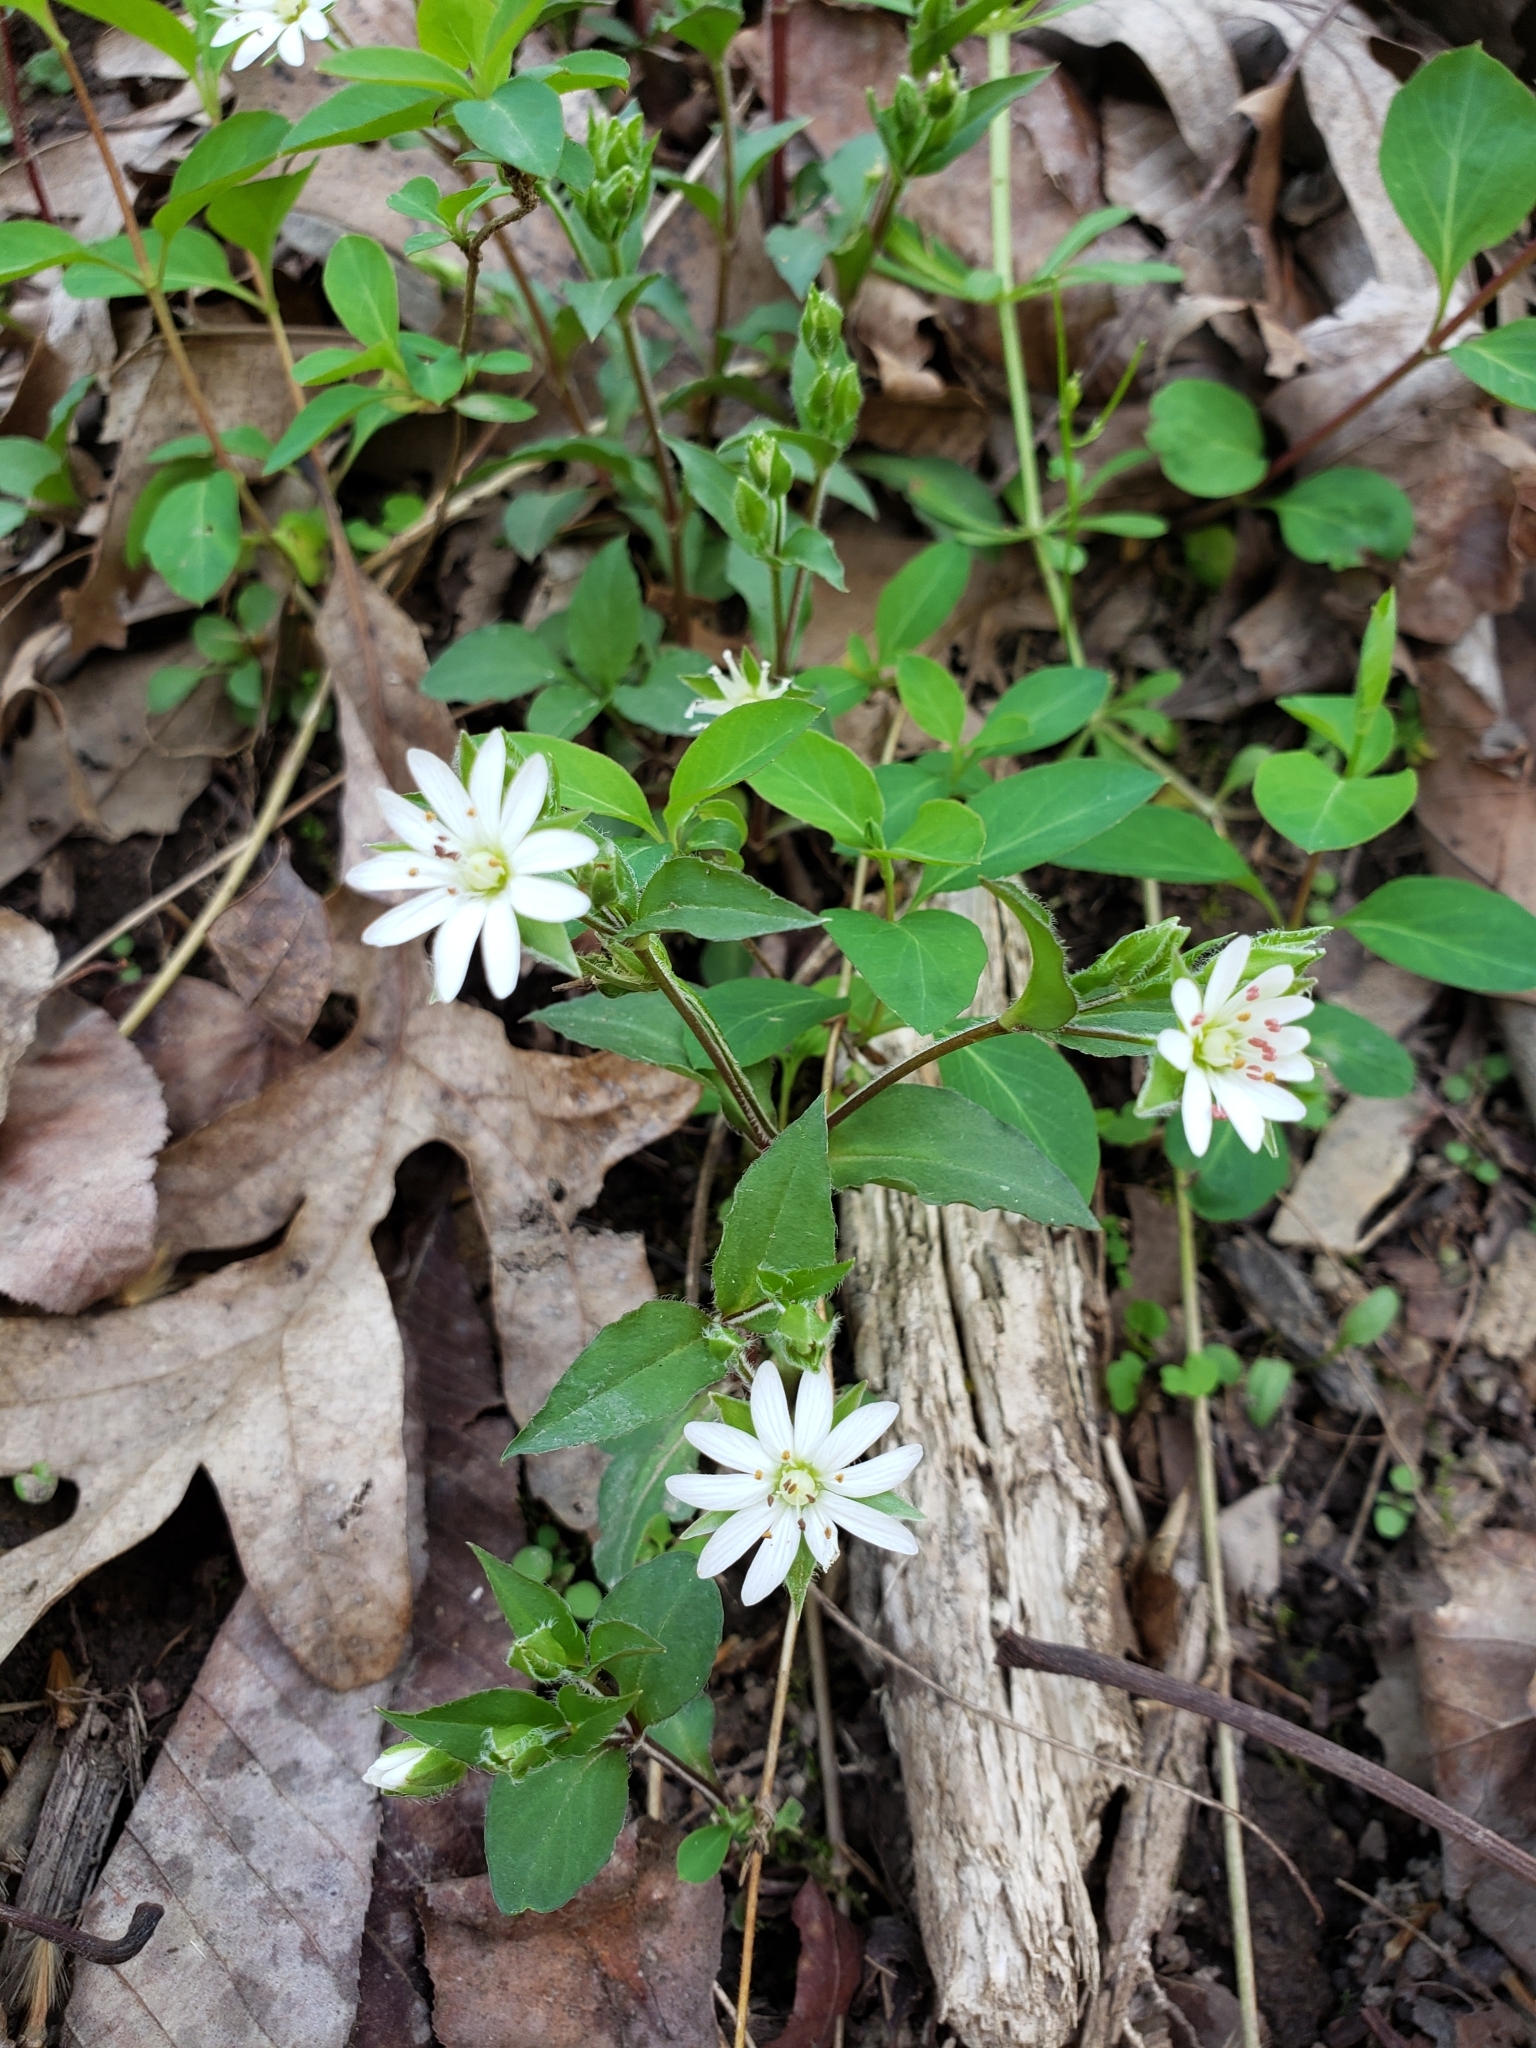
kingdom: Plantae
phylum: Tracheophyta
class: Magnoliopsida
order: Caryophyllales
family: Caryophyllaceae
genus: Stellaria
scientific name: Stellaria pubera
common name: Star chickweed
